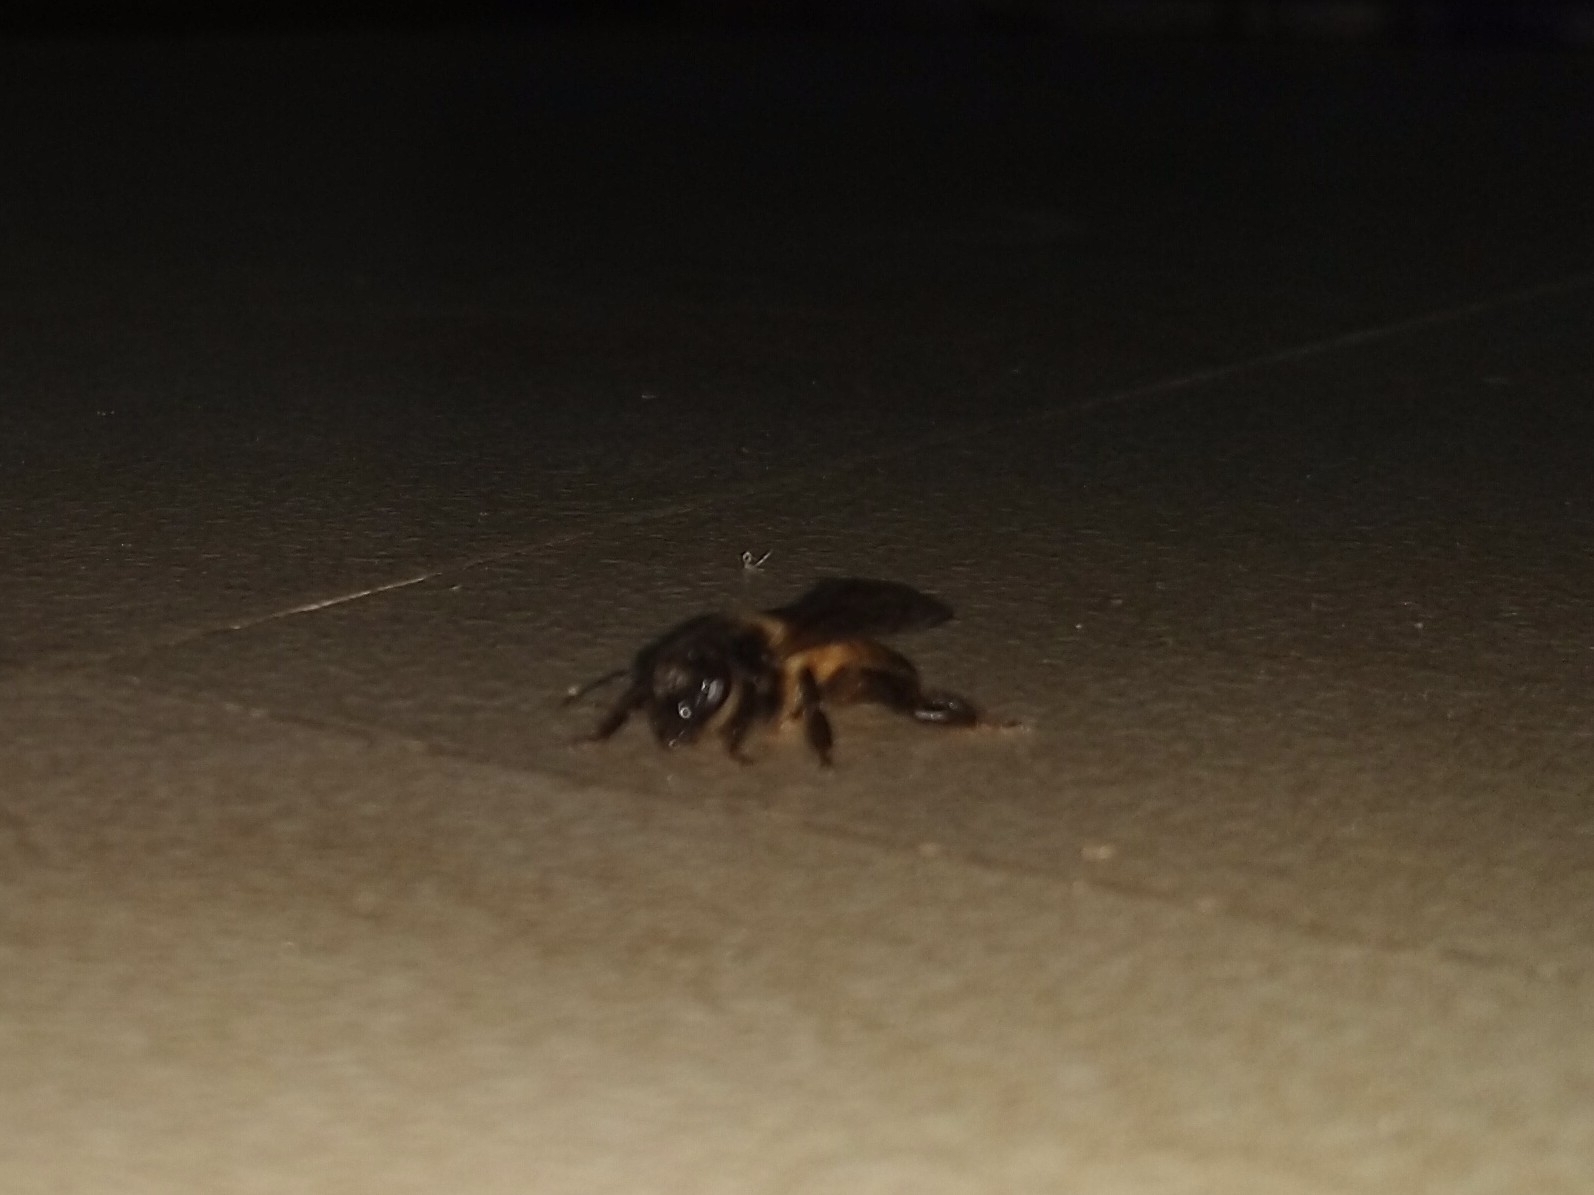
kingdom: Animalia
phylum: Arthropoda
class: Insecta
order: Hymenoptera
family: Apidae
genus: Apis
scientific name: Apis dorsata
